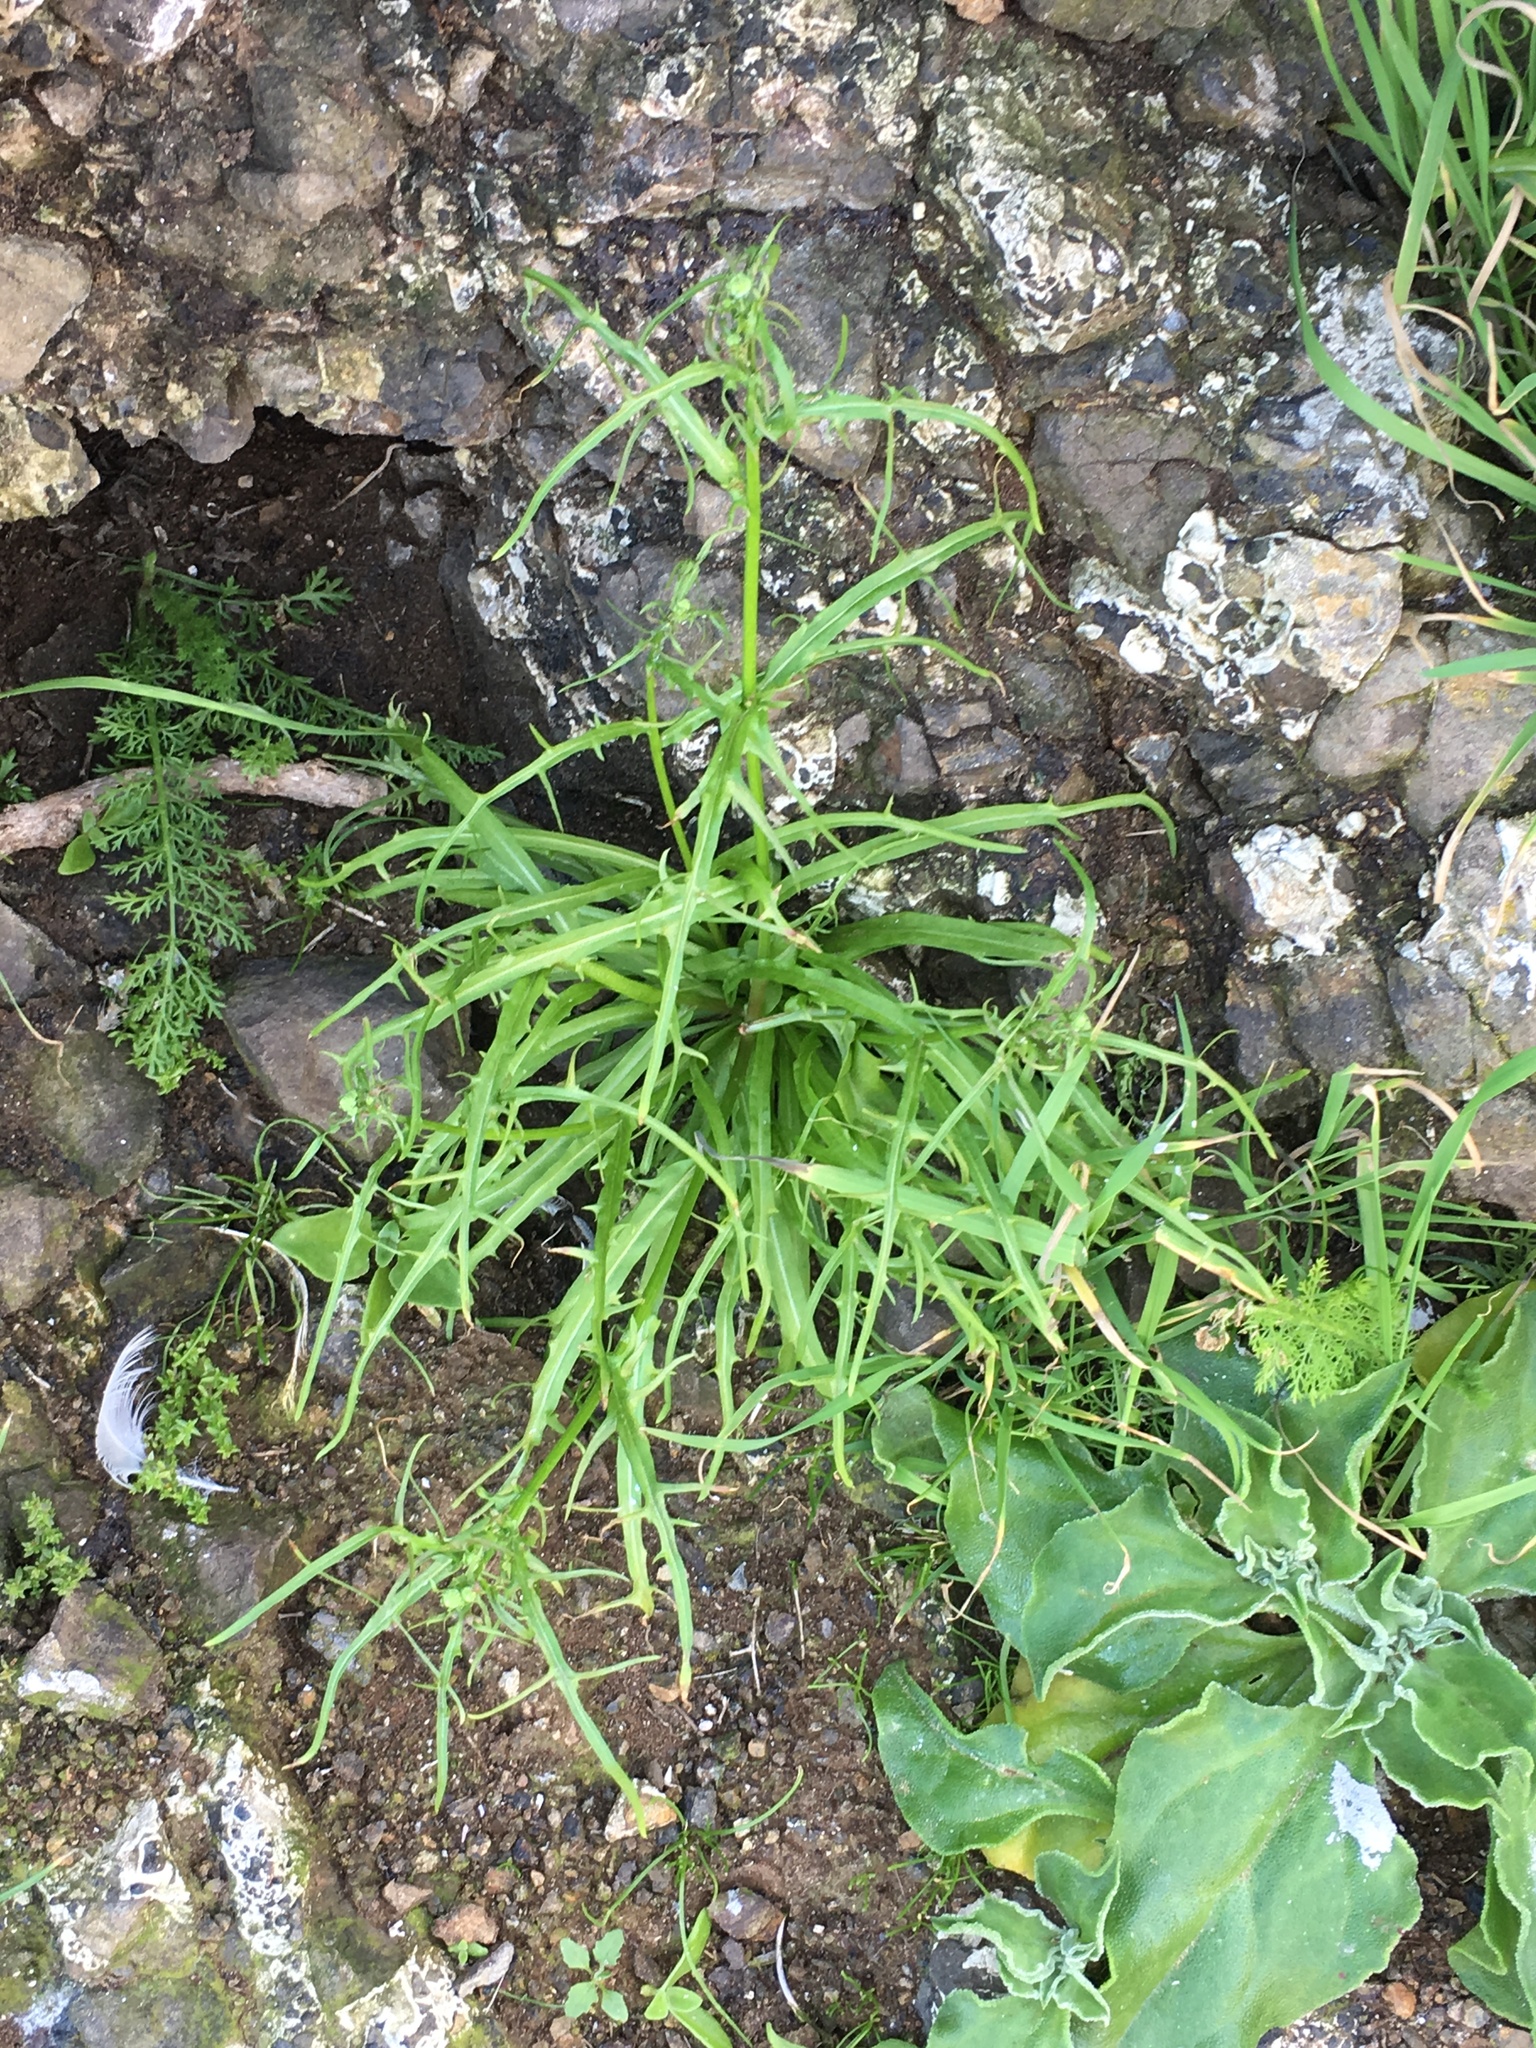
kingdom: Plantae
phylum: Tracheophyta
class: Magnoliopsida
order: Caryophyllales
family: Aizoaceae
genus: Mesembryanthemum
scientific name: Mesembryanthemum crystallinum
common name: Common iceplant
